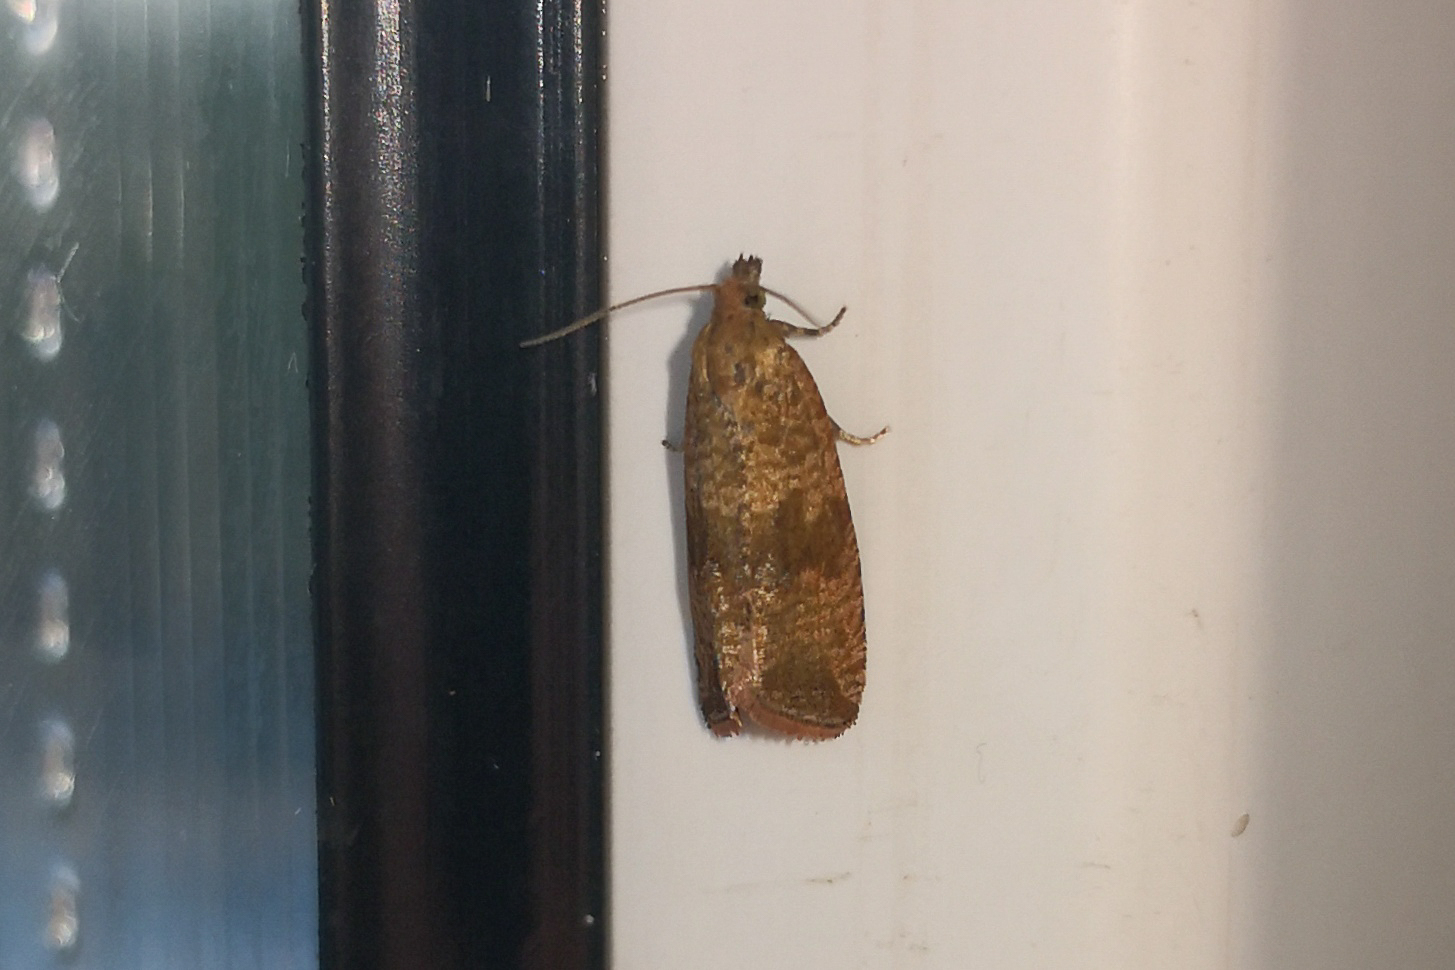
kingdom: Animalia
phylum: Arthropoda
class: Insecta
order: Lepidoptera
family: Tortricidae
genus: Celypha
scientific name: Celypha striana
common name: Barred marble
